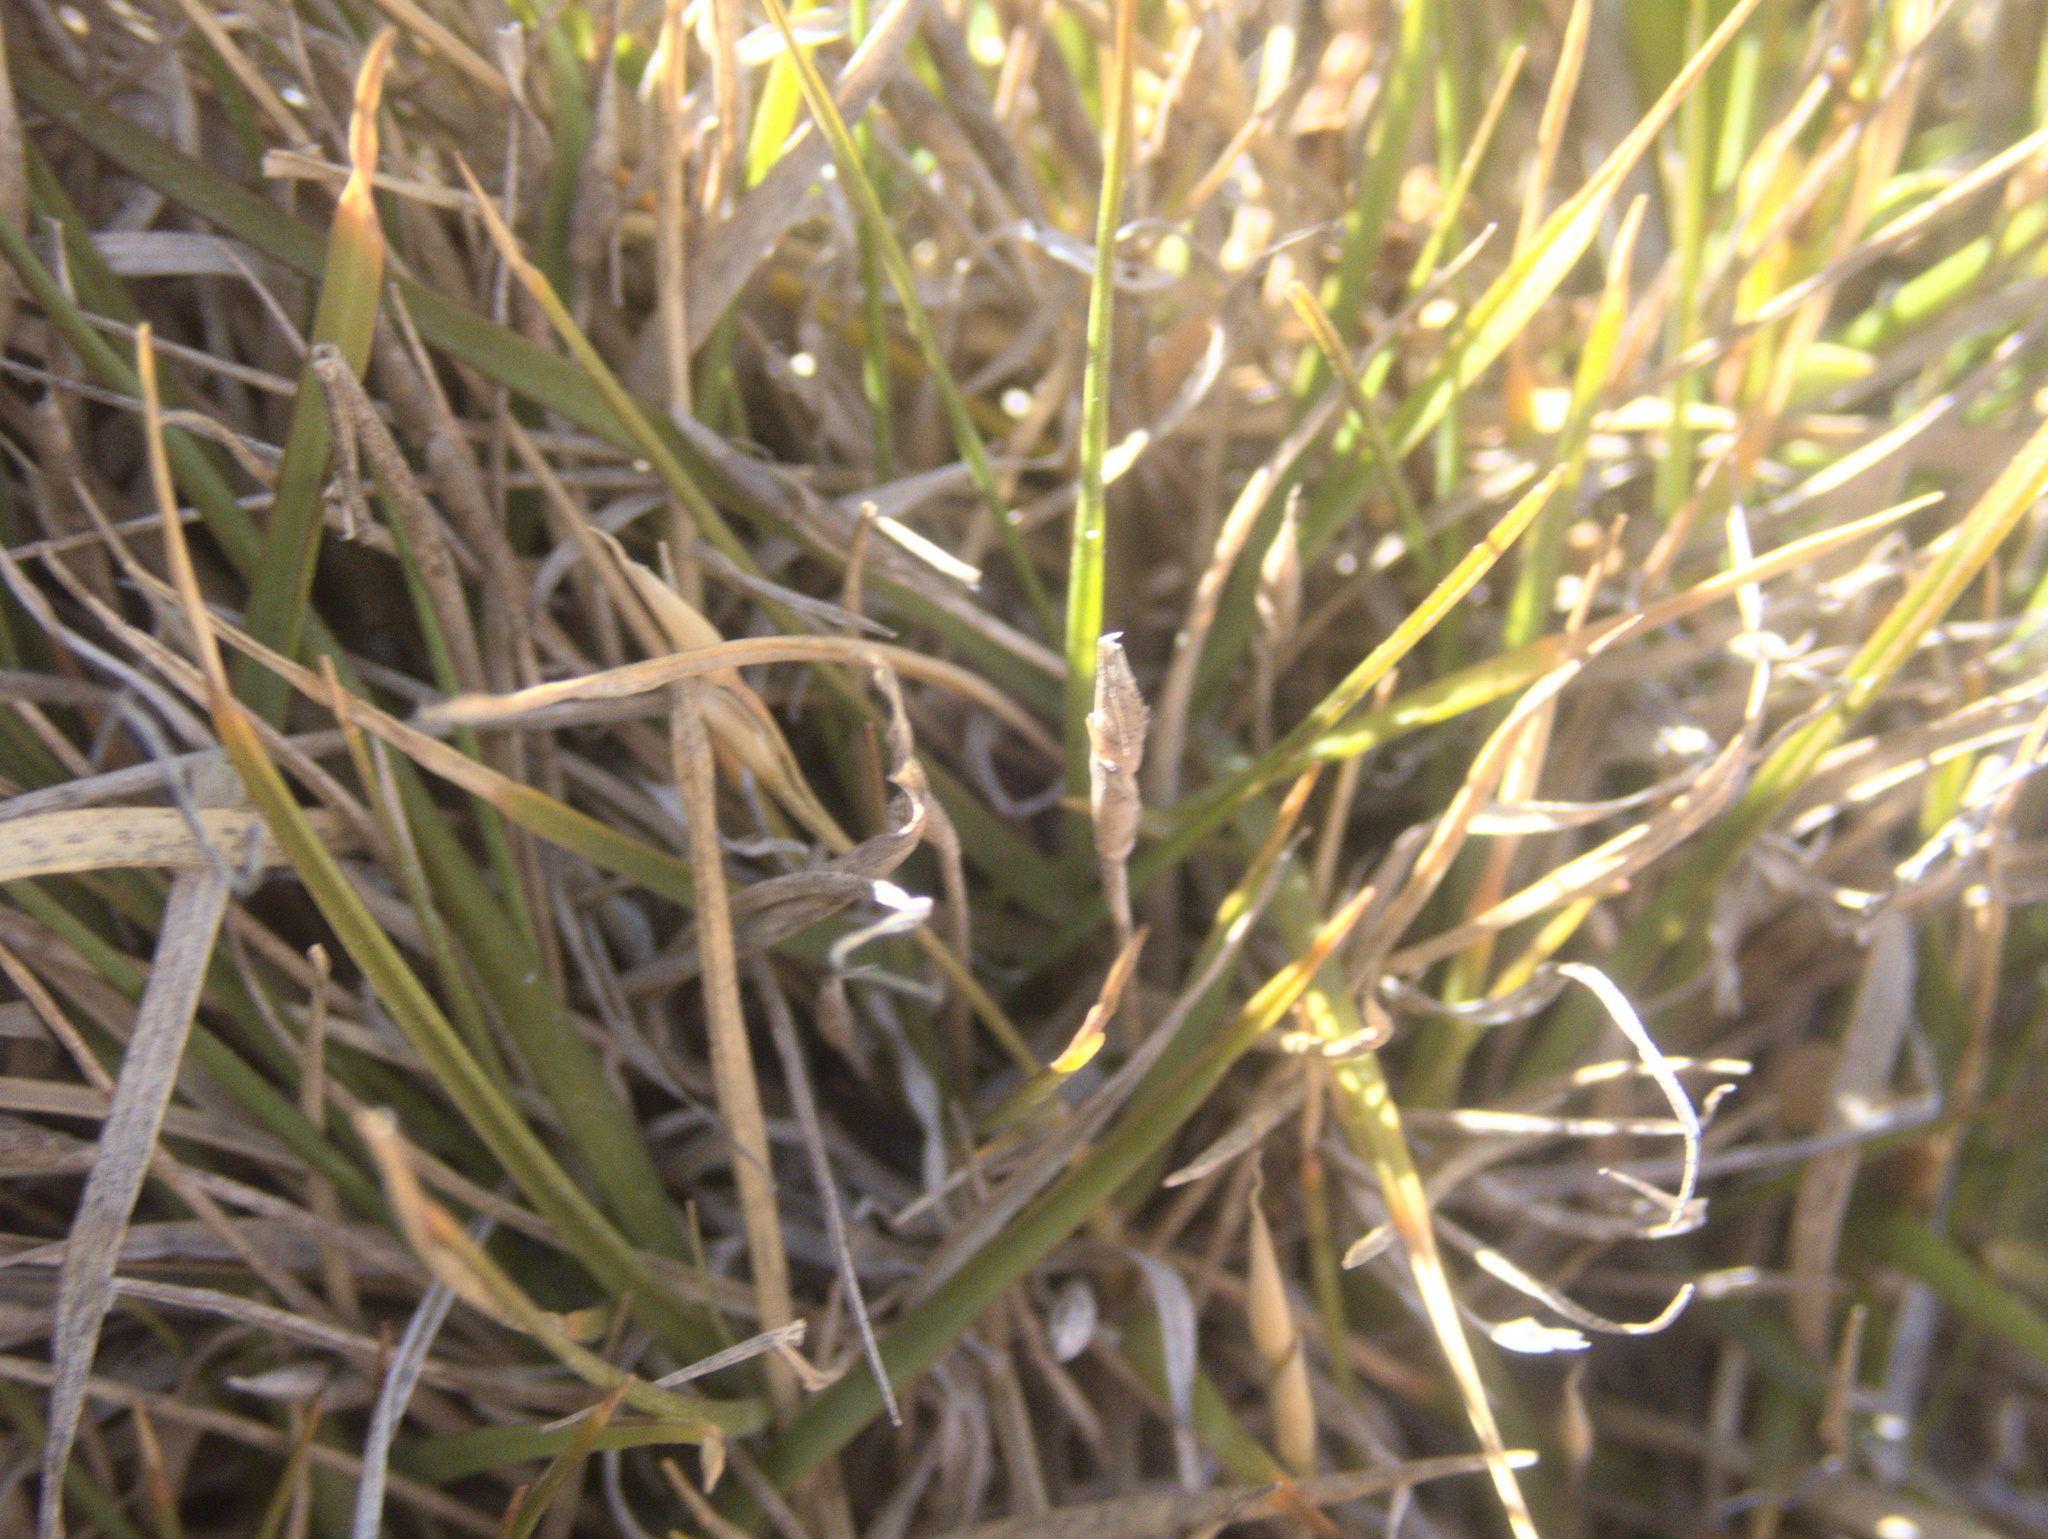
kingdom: Plantae
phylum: Tracheophyta
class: Liliopsida
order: Poales
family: Poaceae
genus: Zoysia
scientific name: Zoysia minima
